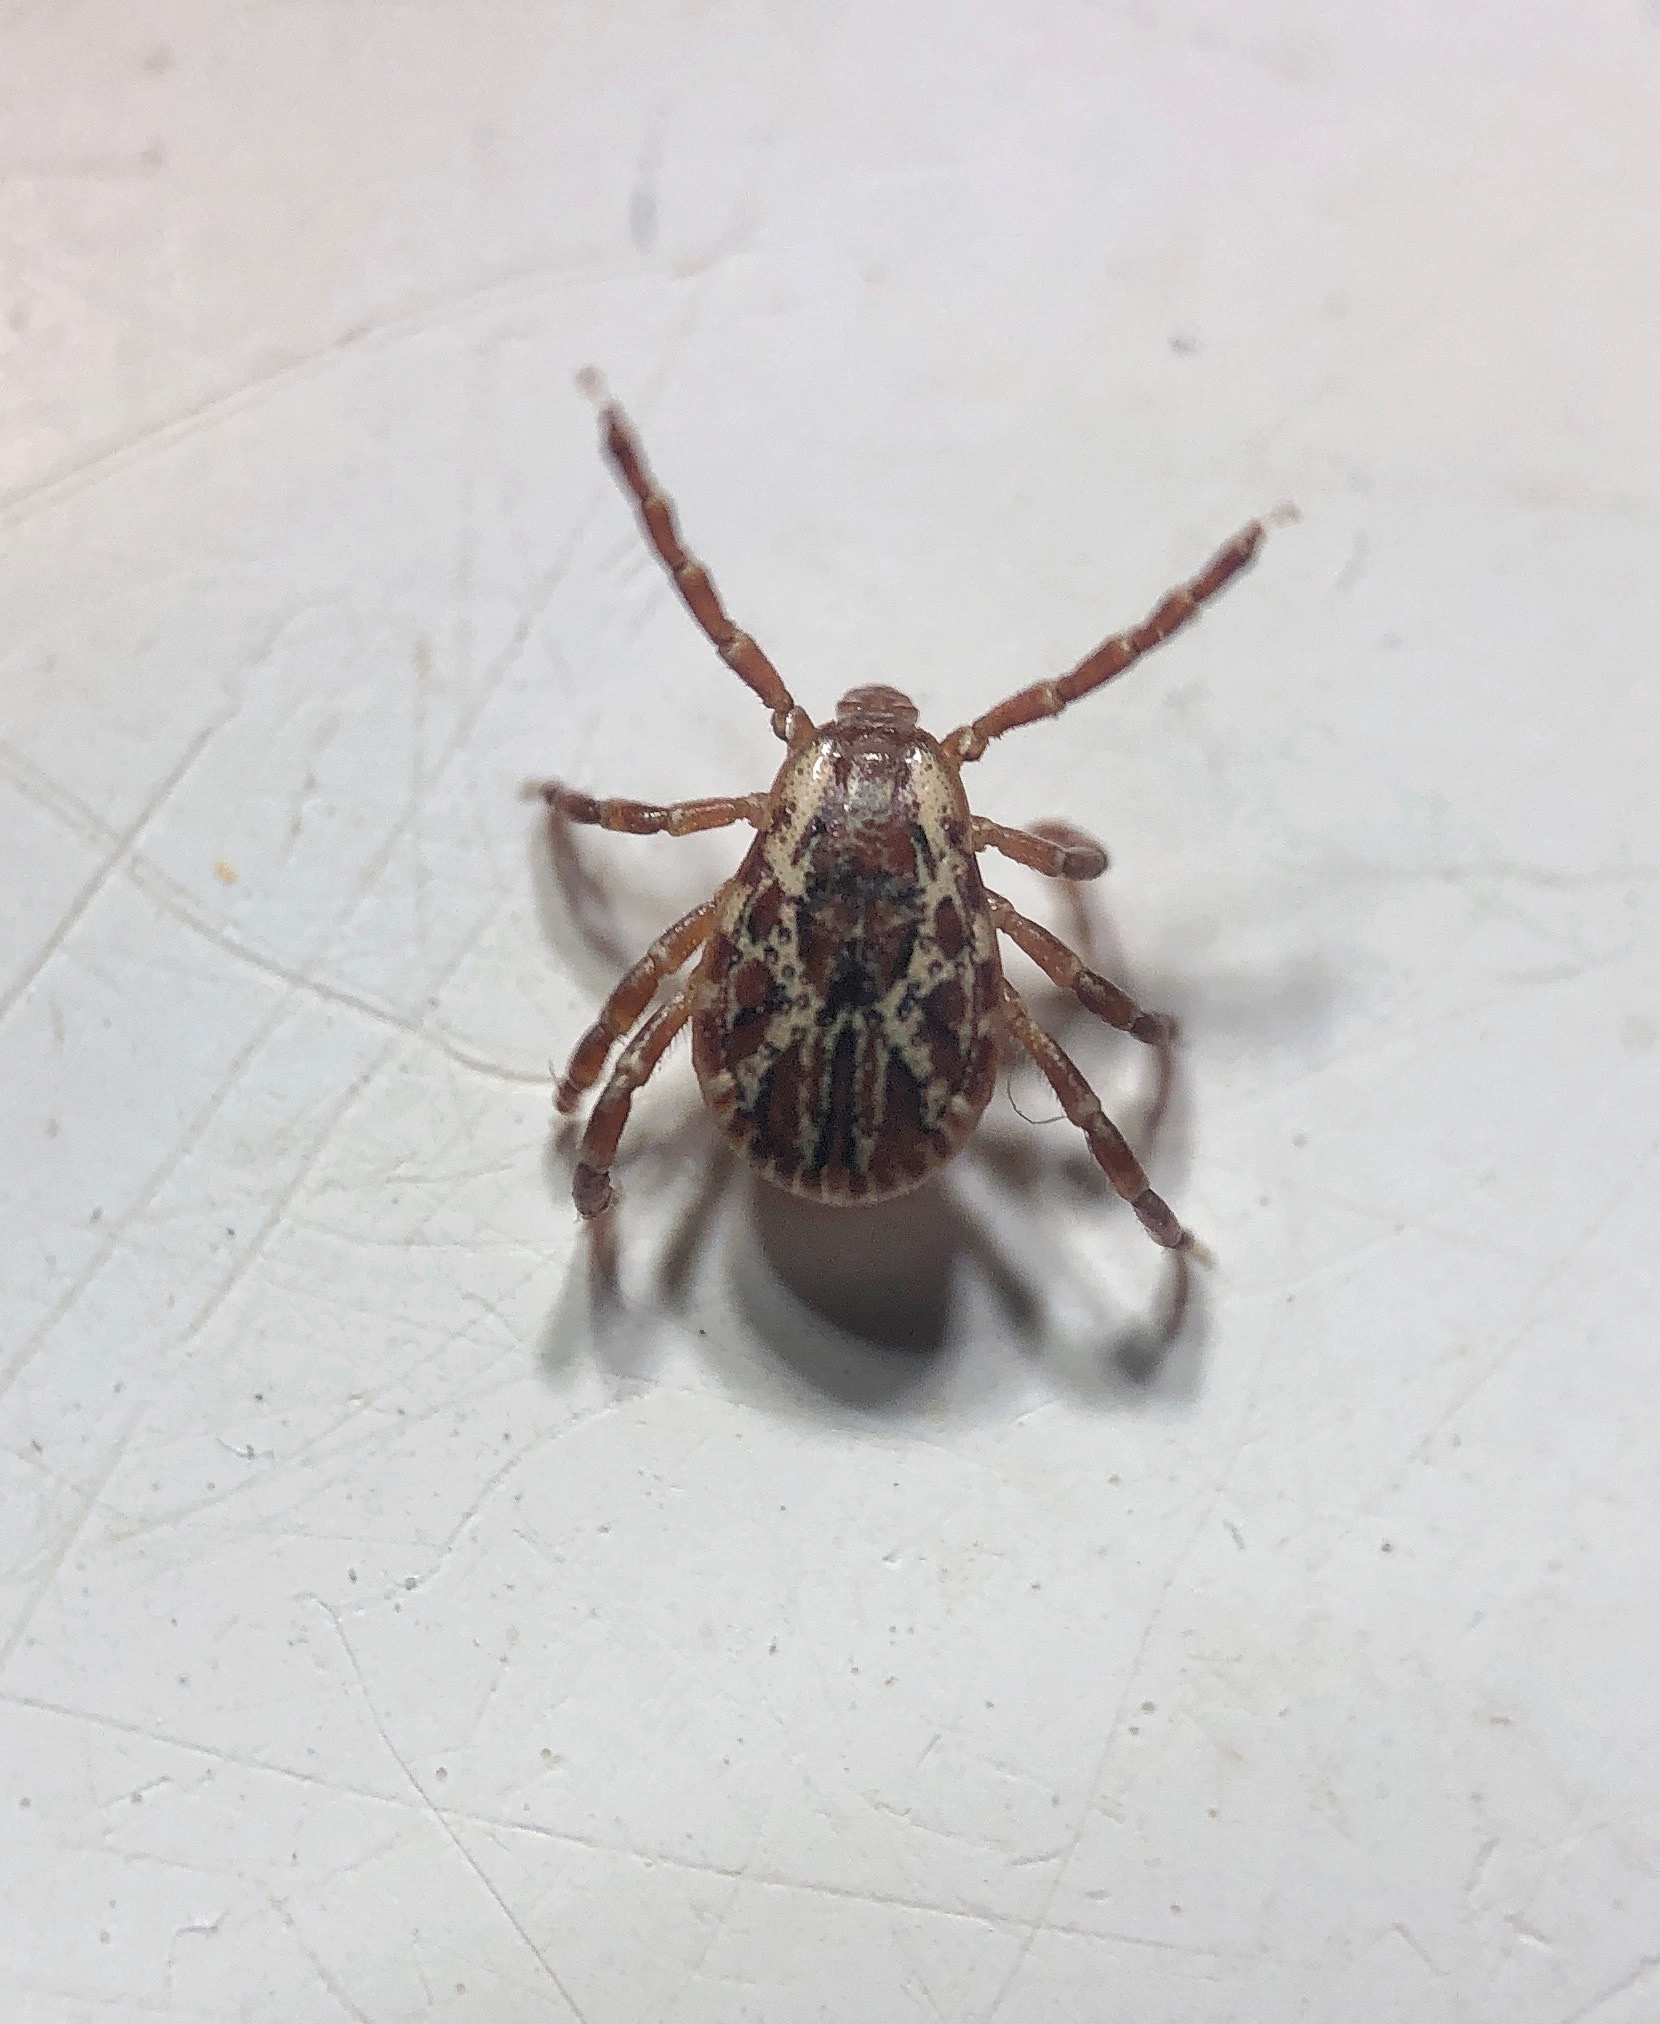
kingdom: Animalia
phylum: Arthropoda
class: Arachnida
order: Ixodida
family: Ixodidae
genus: Dermacentor
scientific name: Dermacentor variabilis
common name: American dog tick
